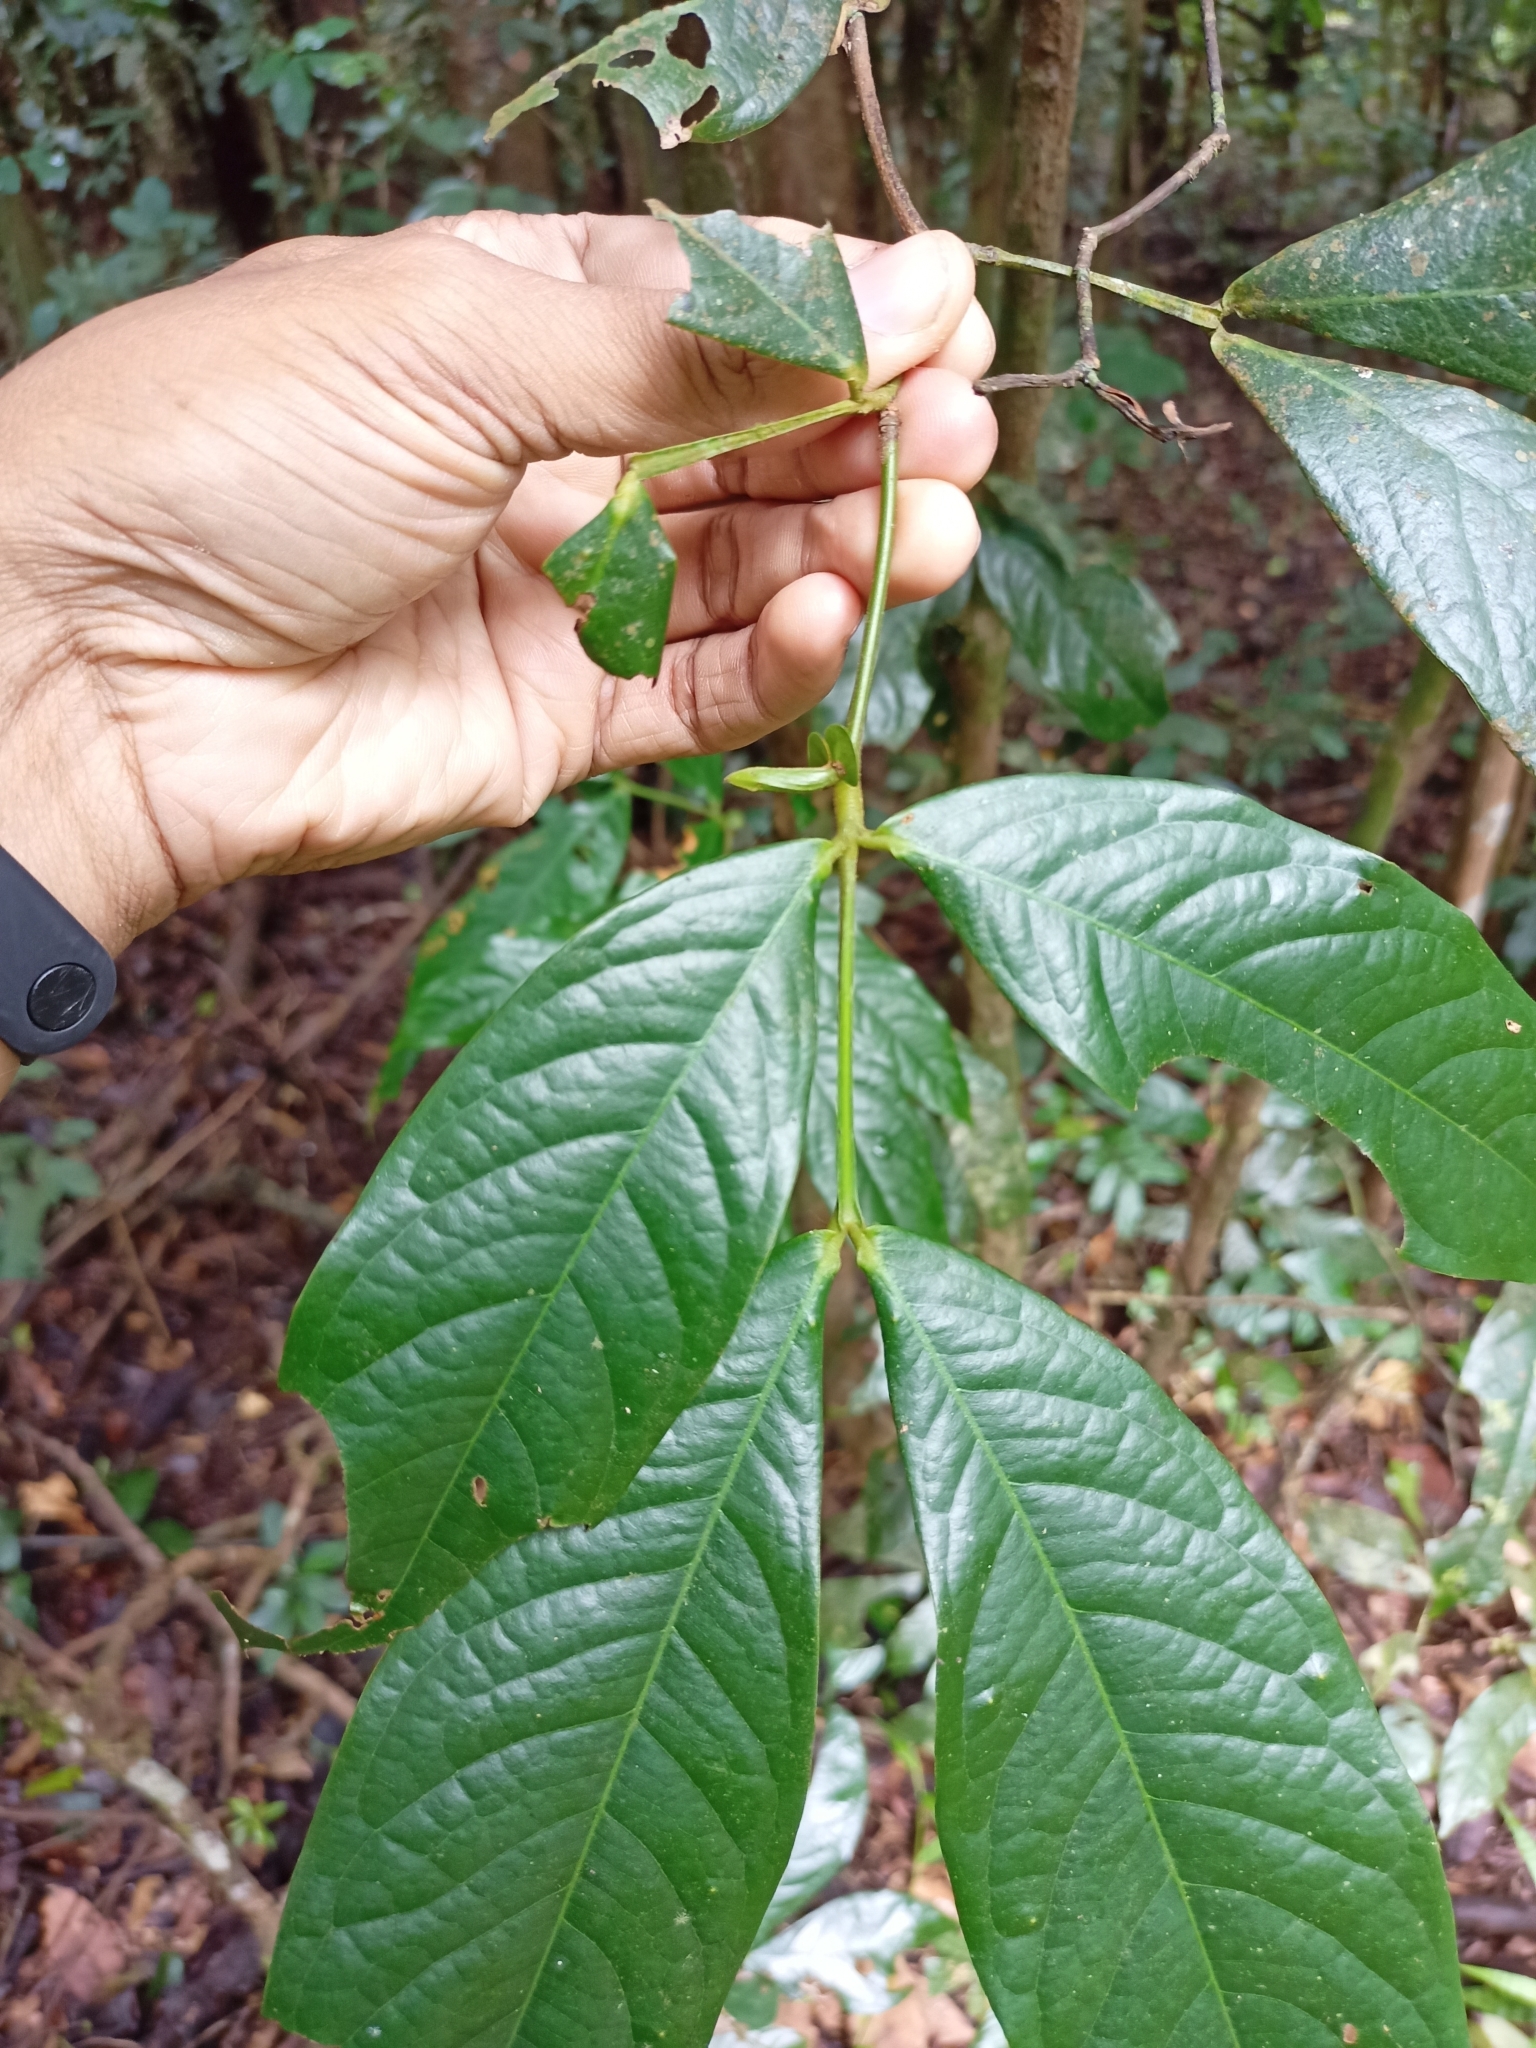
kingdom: Plantae
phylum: Tracheophyta
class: Magnoliopsida
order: Fabales
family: Fabaceae
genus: Humboldtia
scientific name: Humboldtia brunonis
